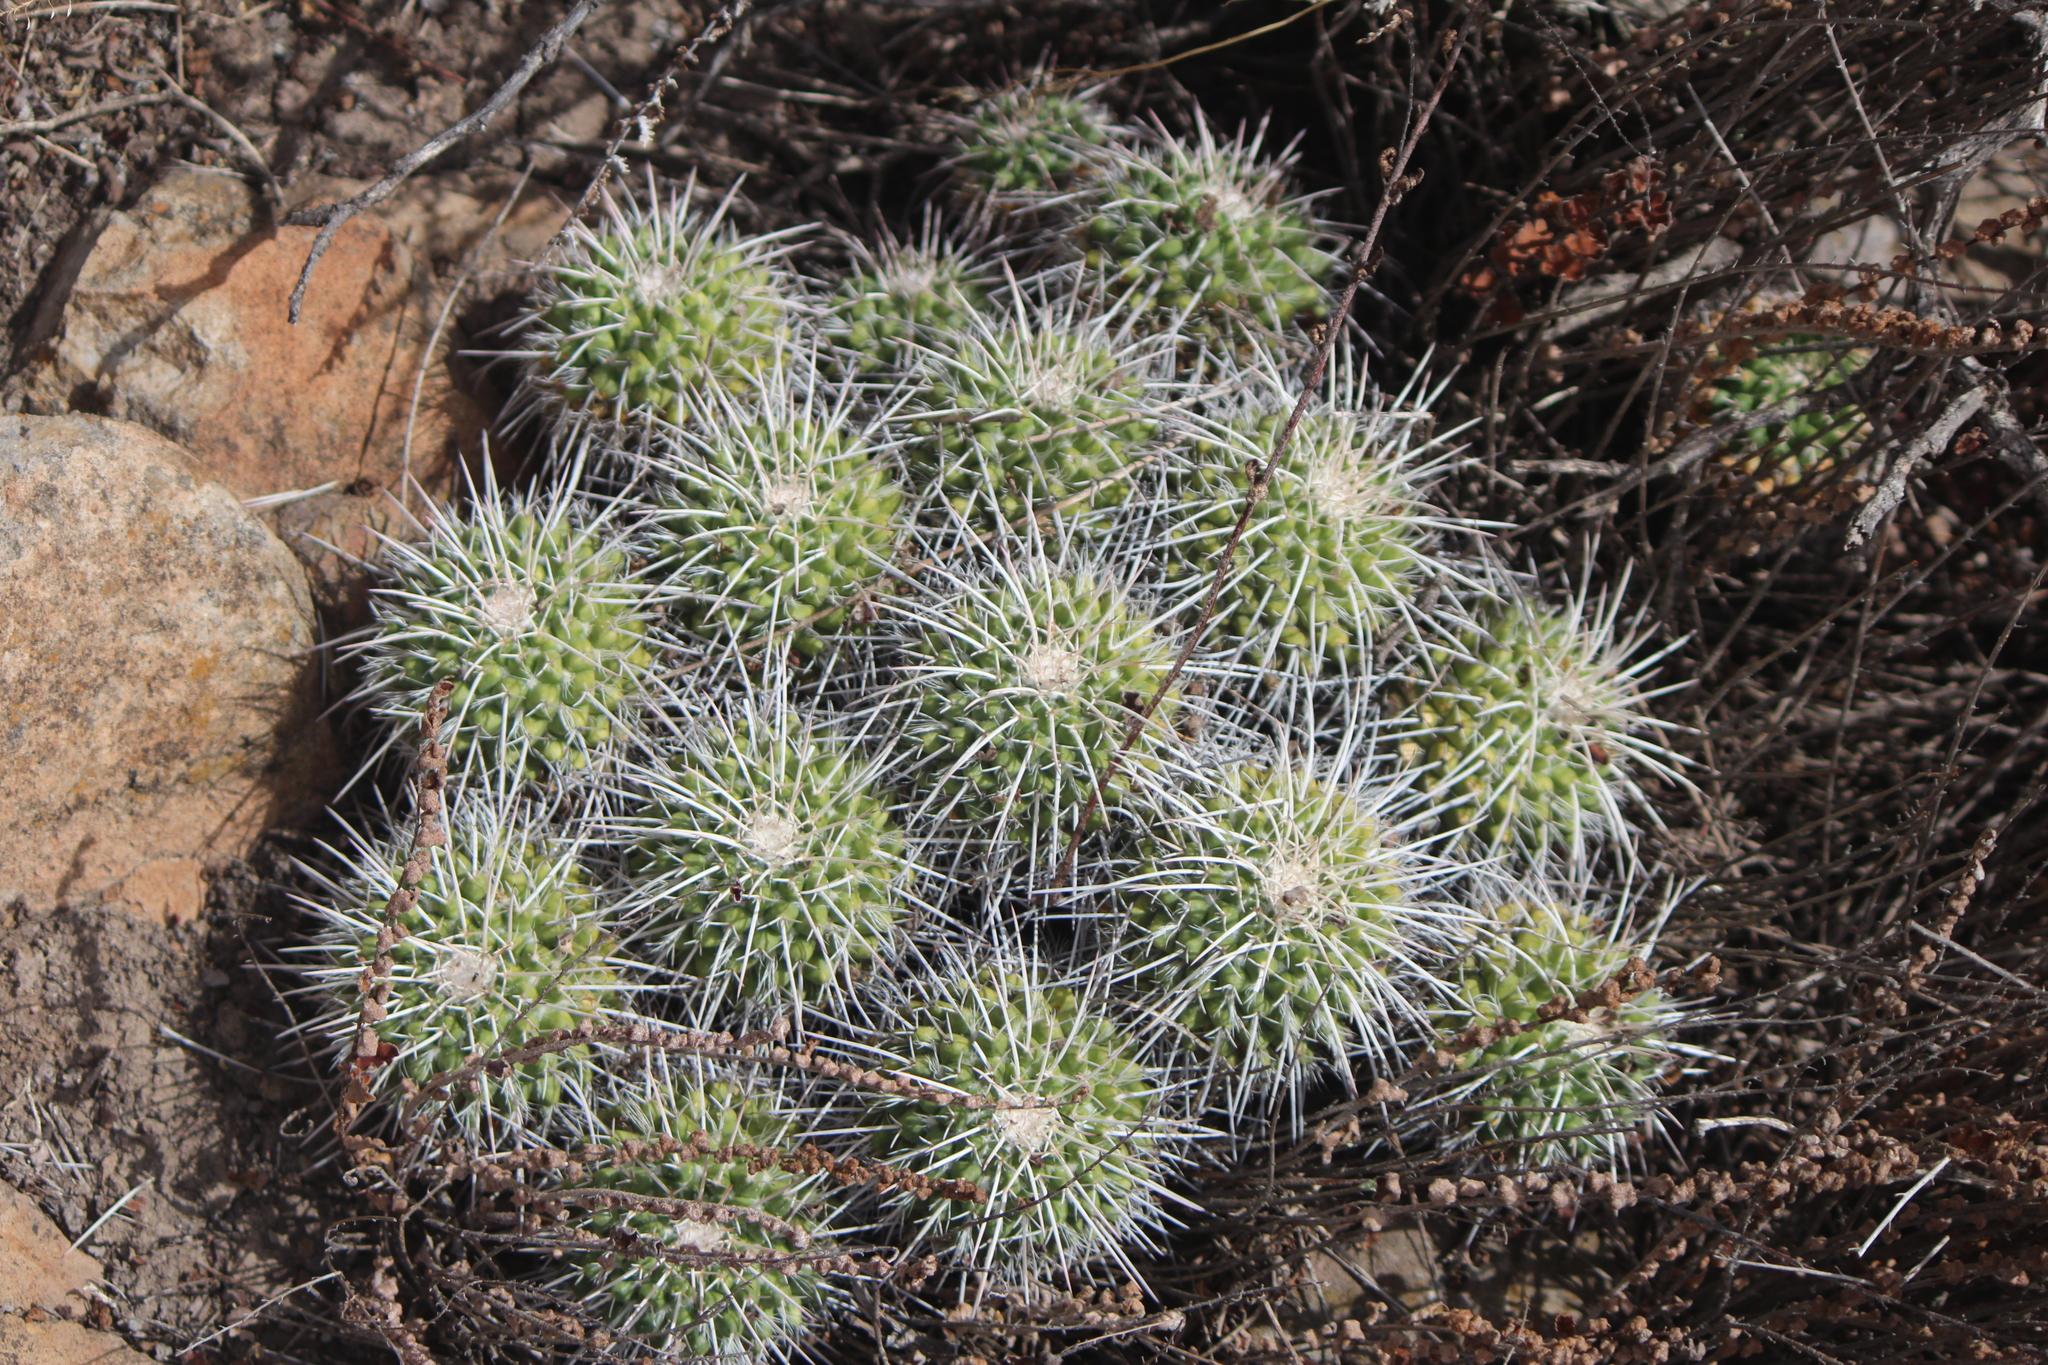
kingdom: Plantae
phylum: Tracheophyta
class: Magnoliopsida
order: Caryophyllales
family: Cactaceae
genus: Mammillaria
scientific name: Mammillaria compressa
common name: Mother-of-hundreds
